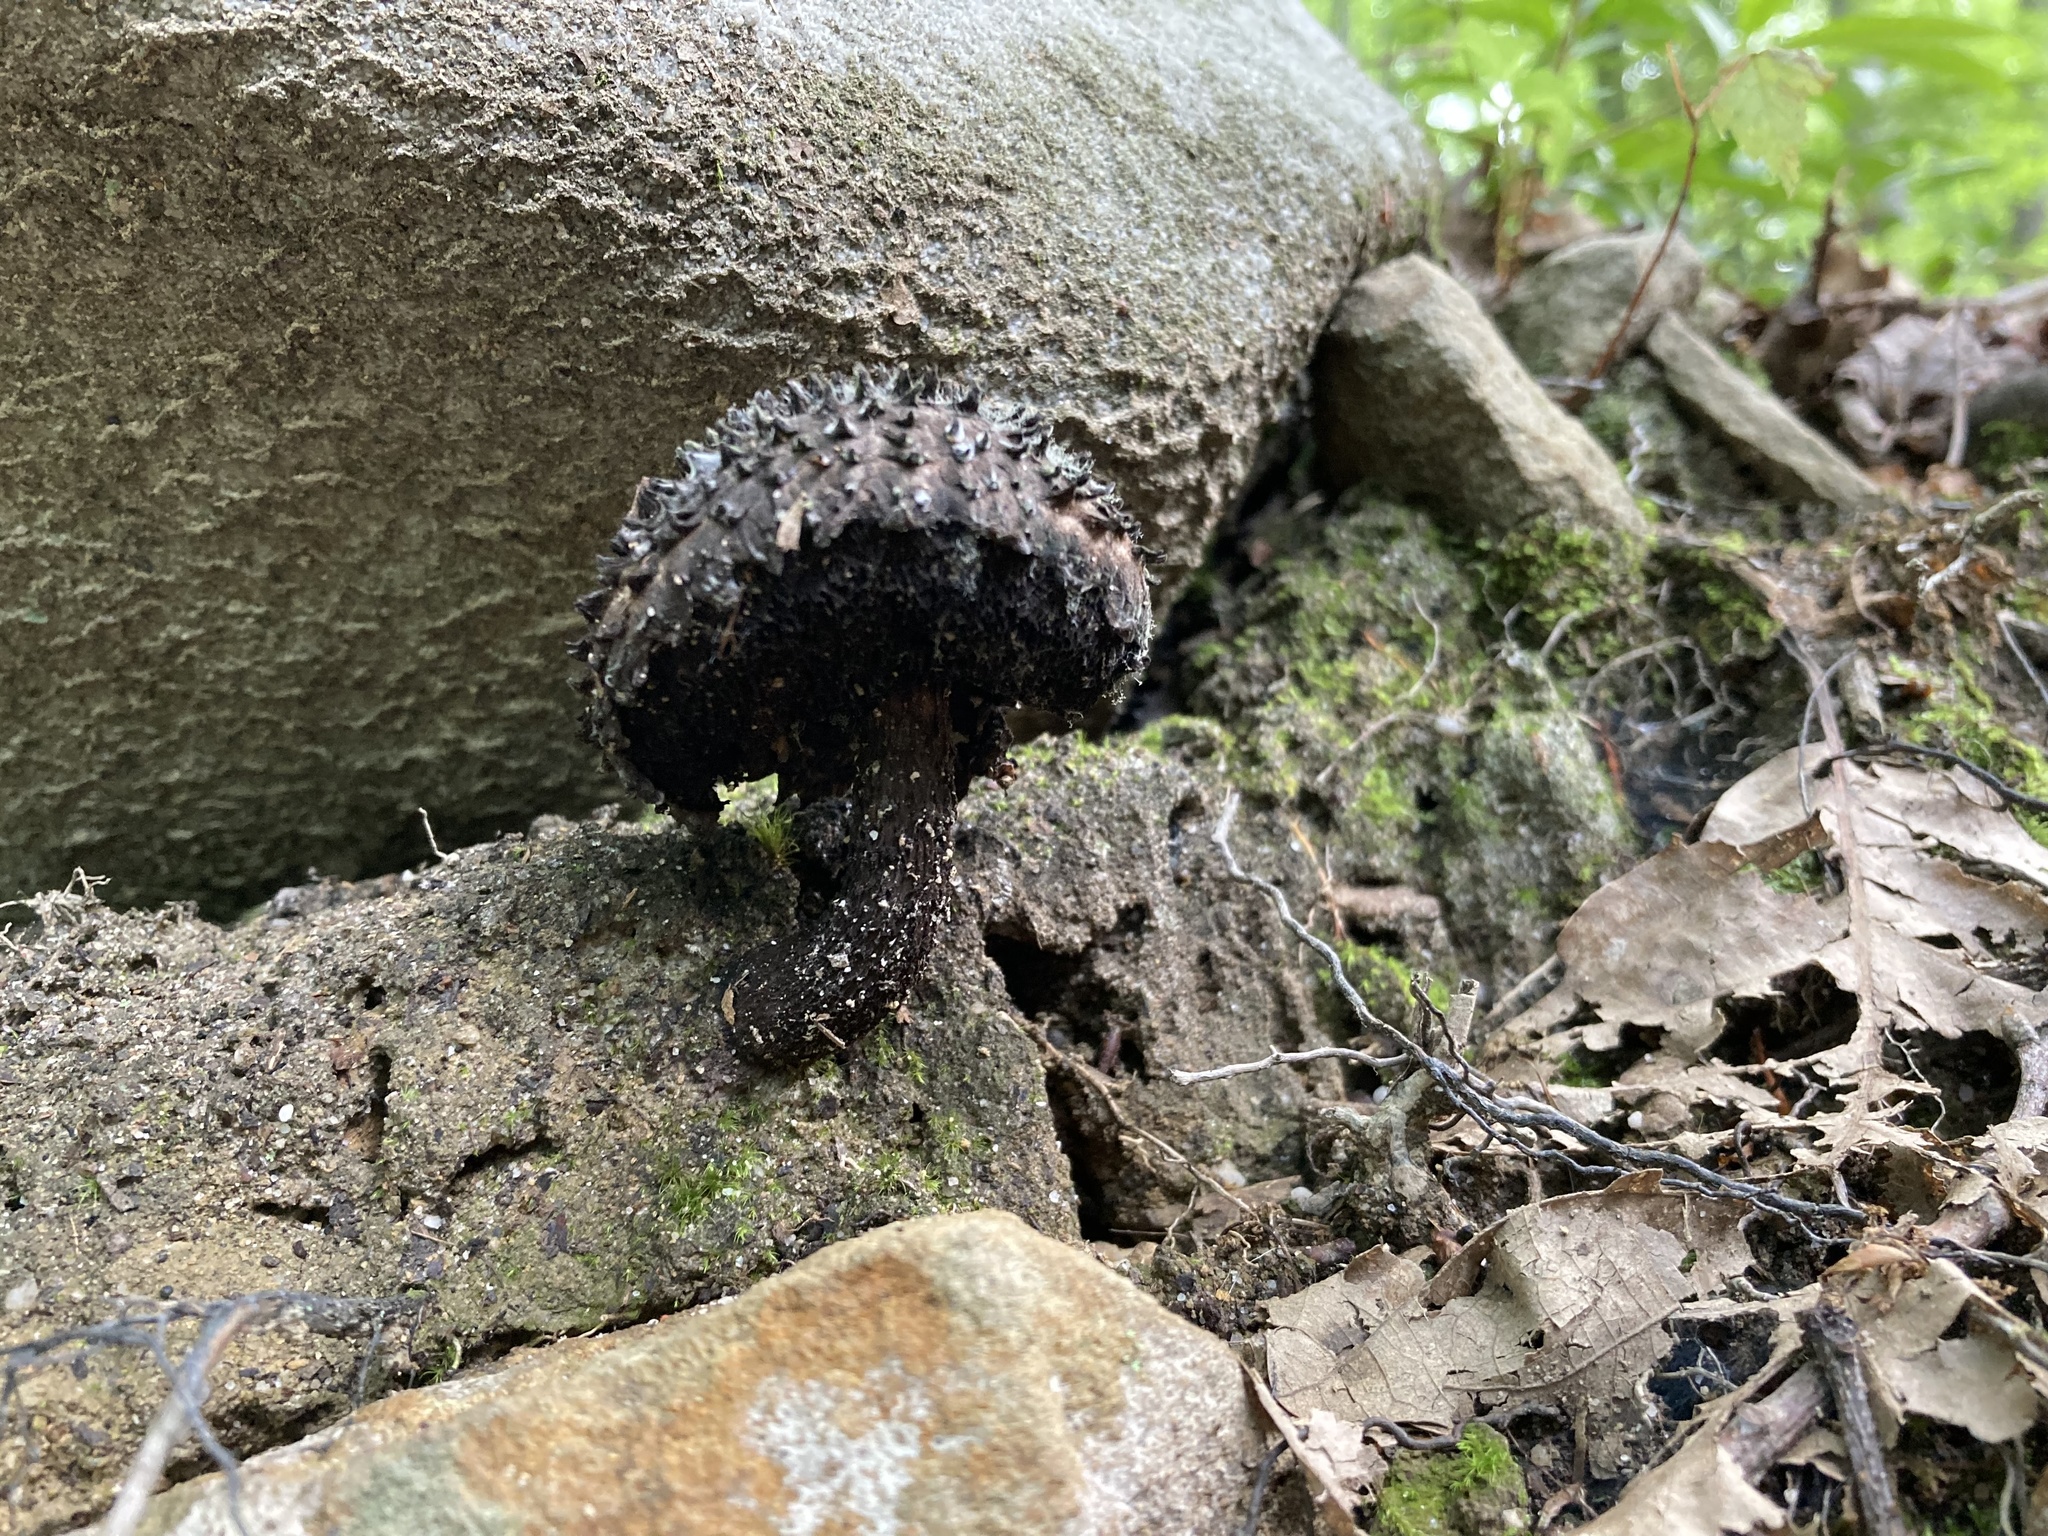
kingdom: Fungi
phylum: Basidiomycota
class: Agaricomycetes
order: Boletales
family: Boletaceae
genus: Strobilomyces
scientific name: Strobilomyces strobilaceus
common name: Old man of the woods
